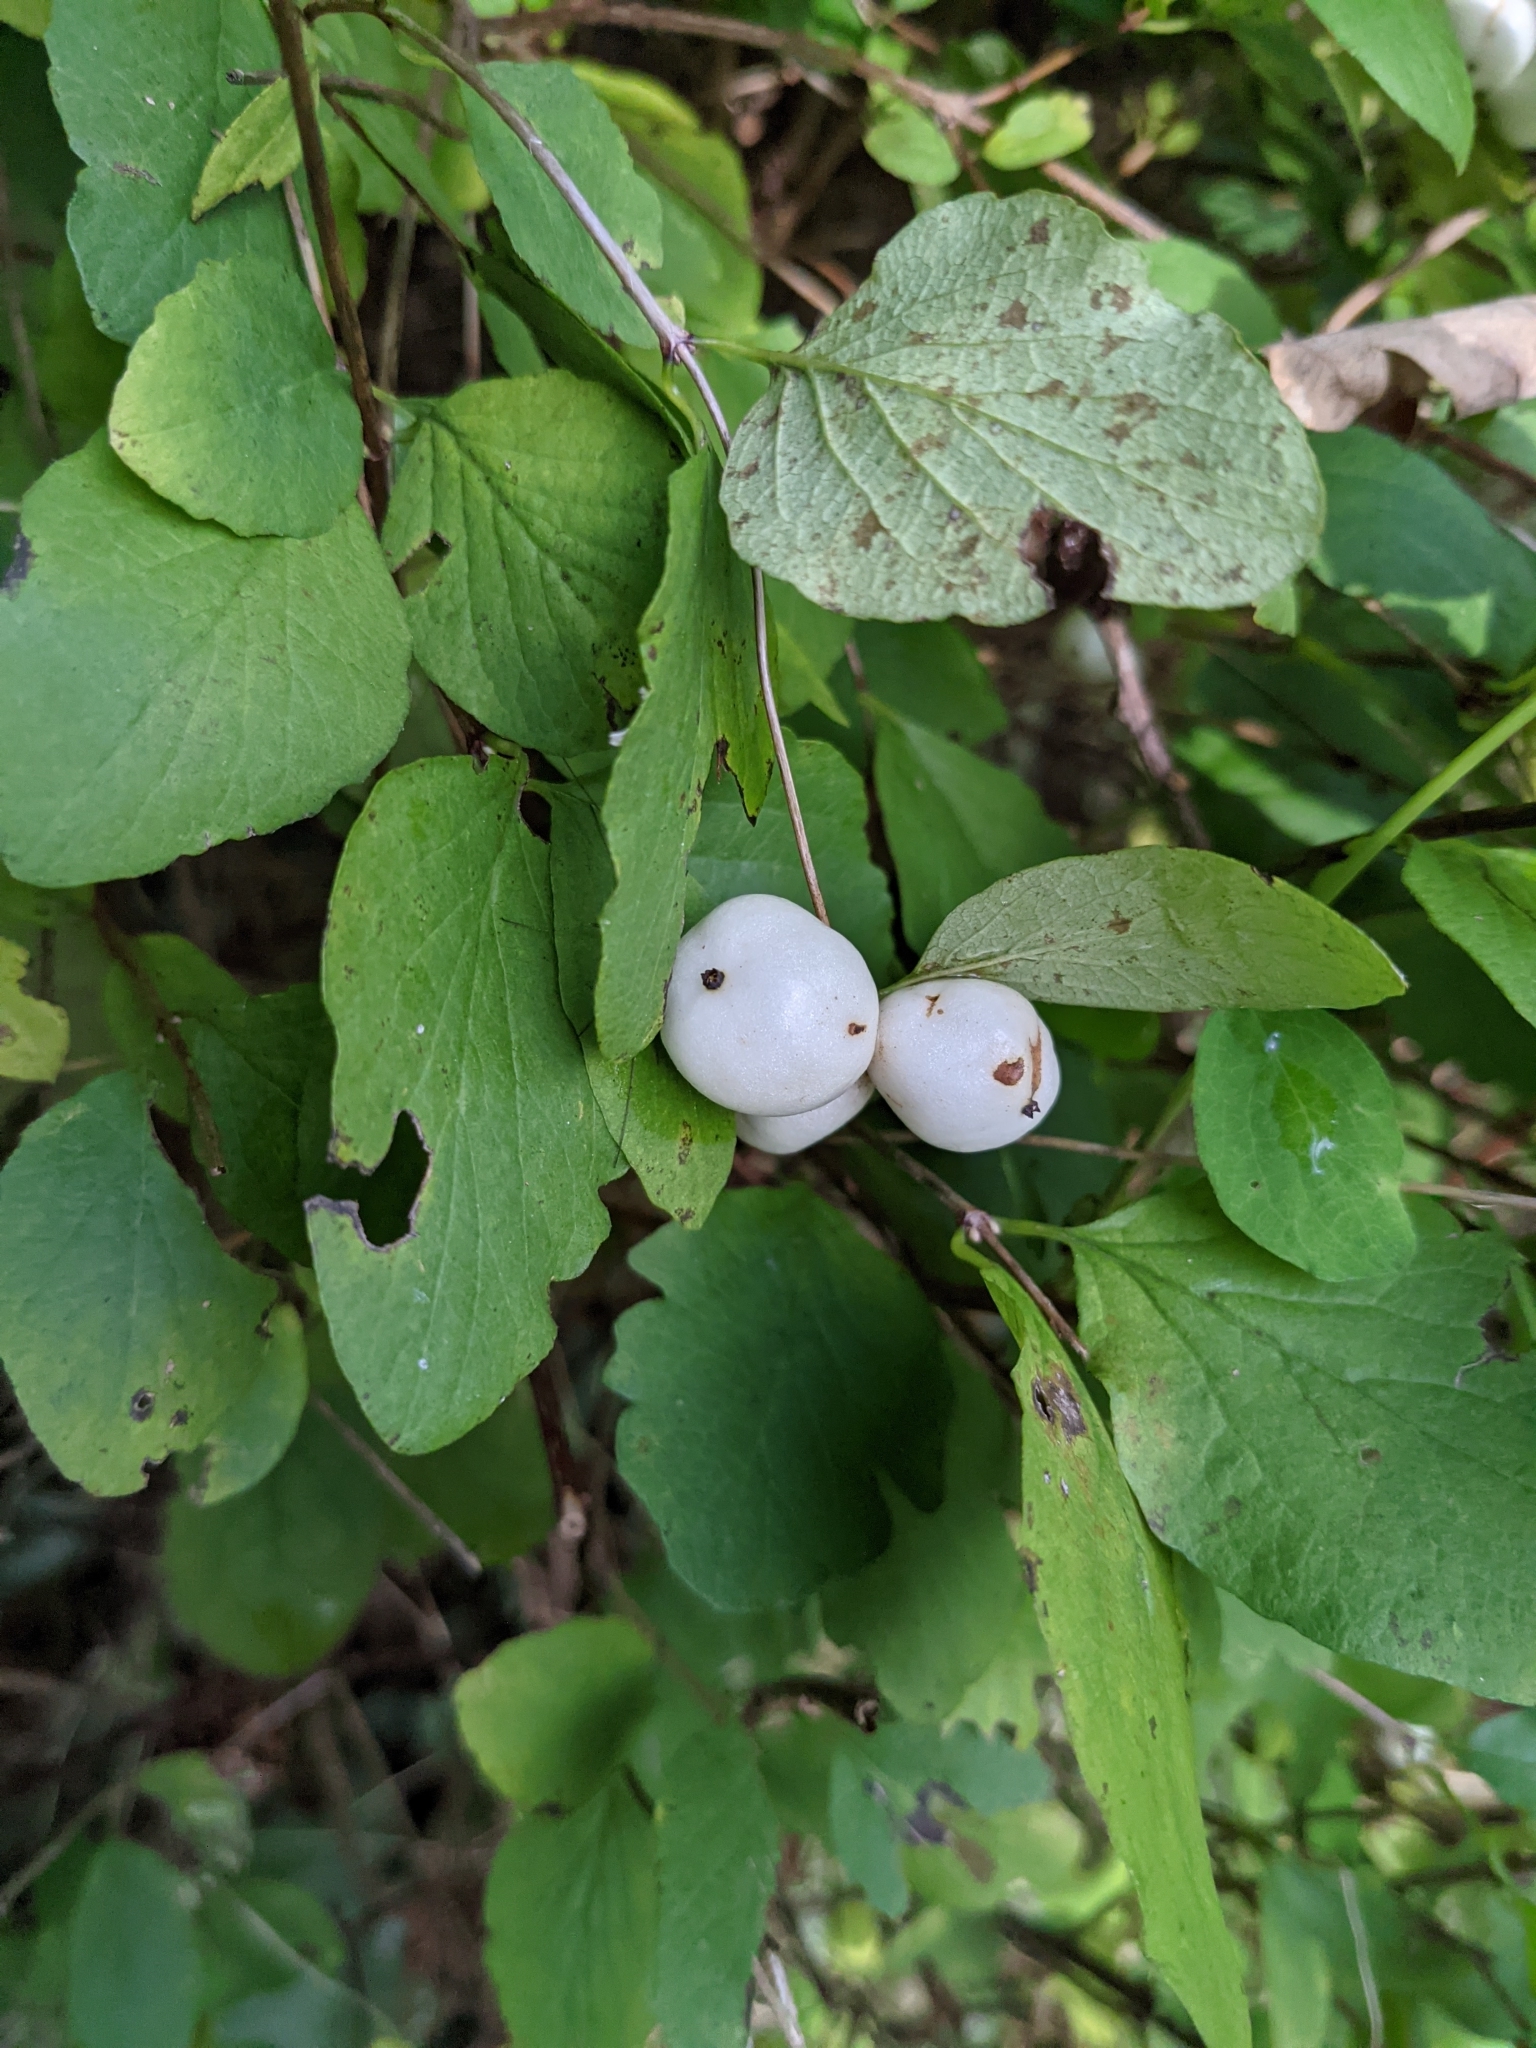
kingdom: Plantae
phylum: Tracheophyta
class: Magnoliopsida
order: Dipsacales
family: Caprifoliaceae
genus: Symphoricarpos
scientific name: Symphoricarpos albus
